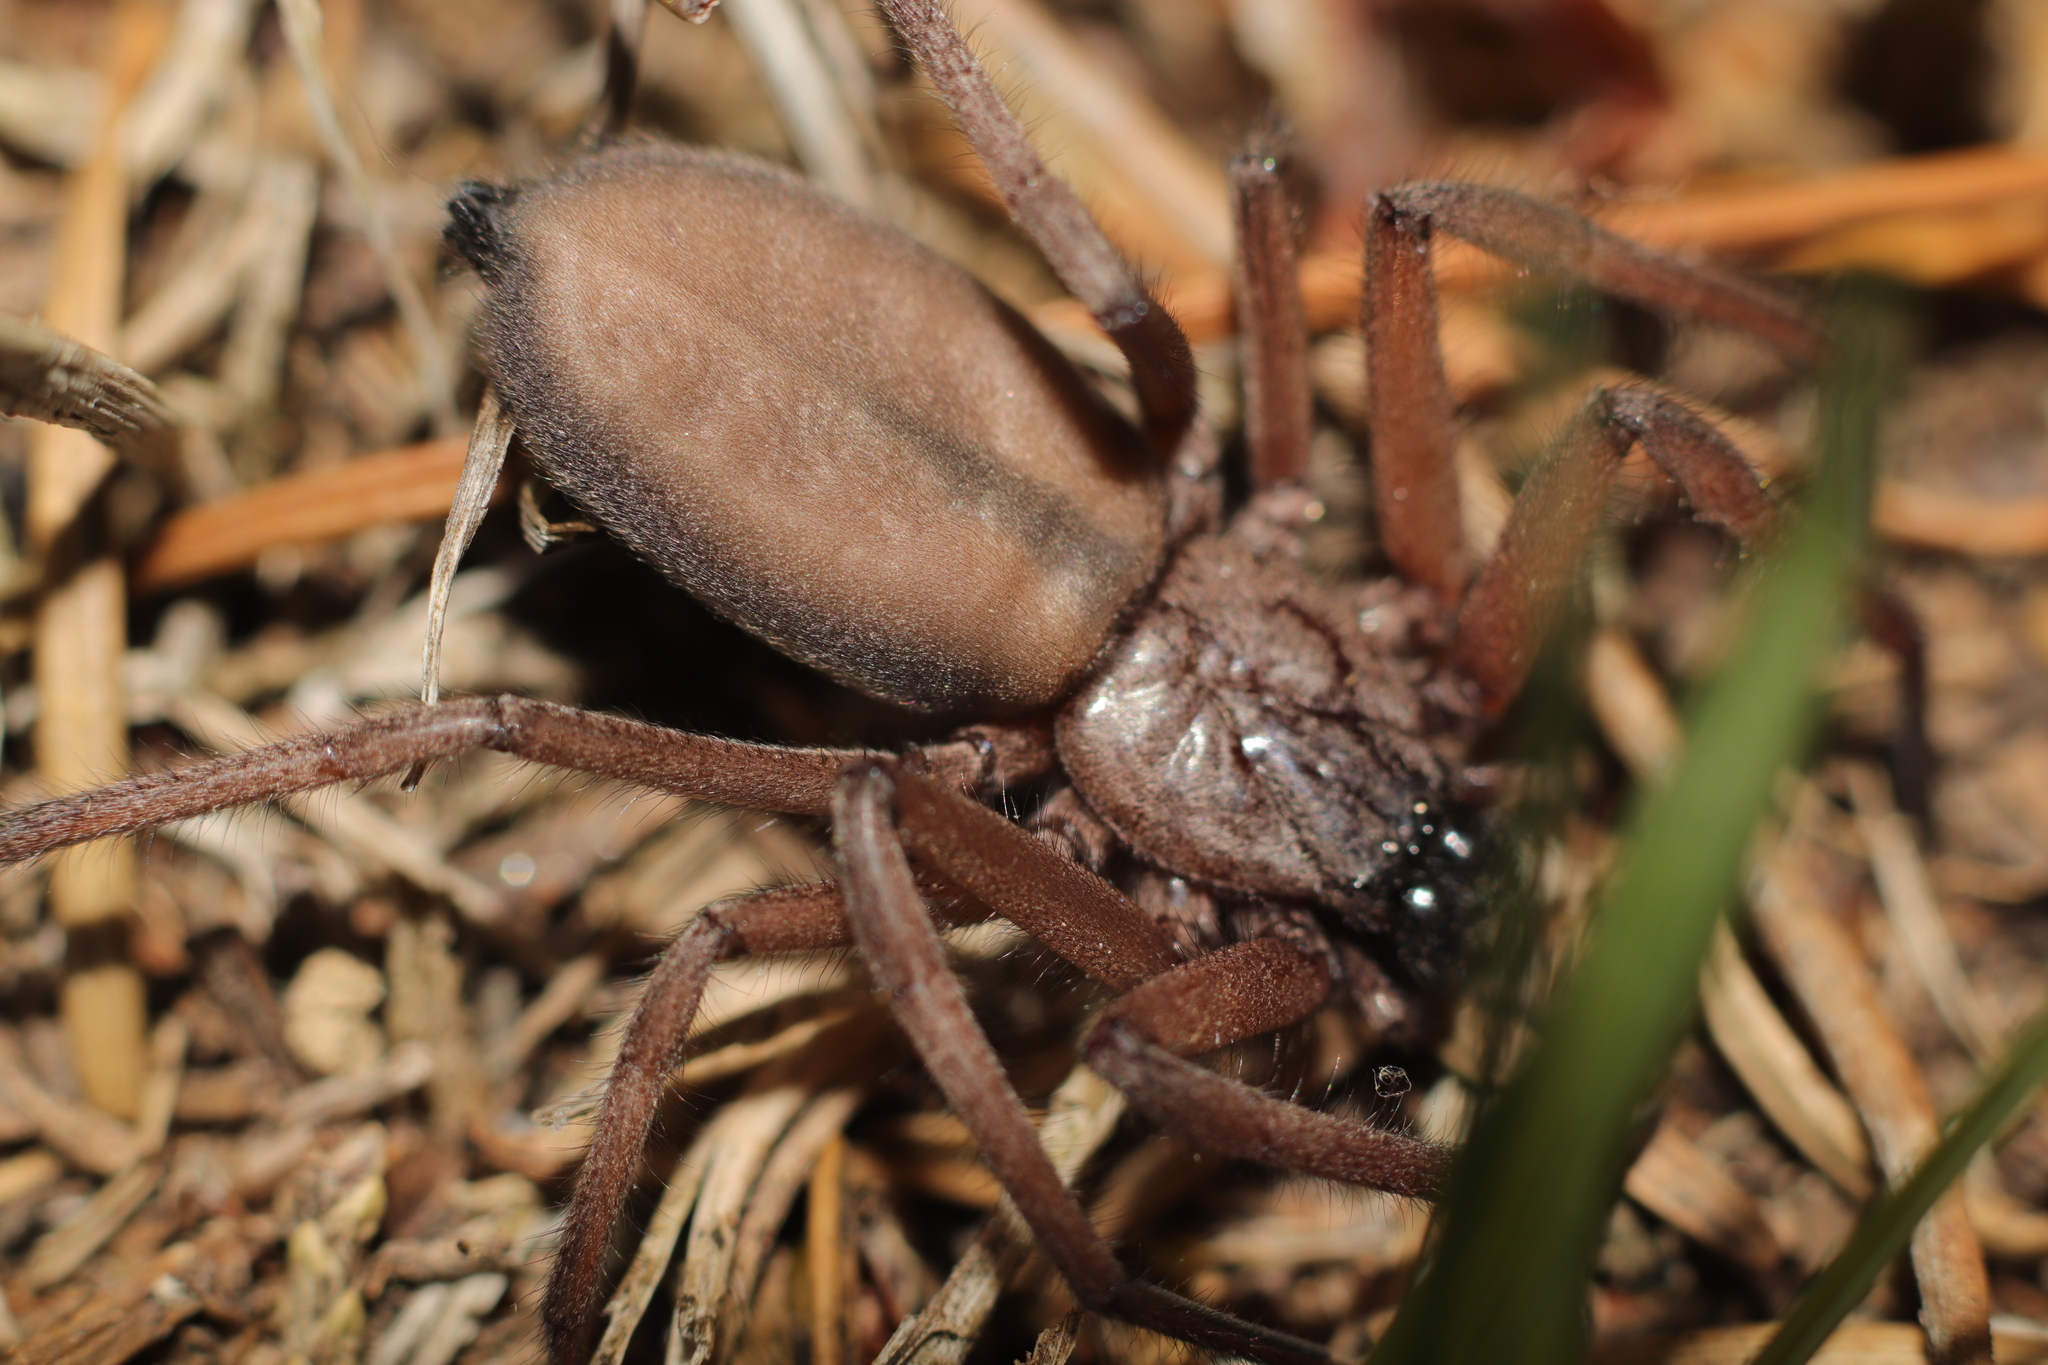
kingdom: Animalia
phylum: Arthropoda
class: Arachnida
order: Araneae
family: Trochanteriidae
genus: Hemicloea
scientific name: Hemicloea rogenhoferi
